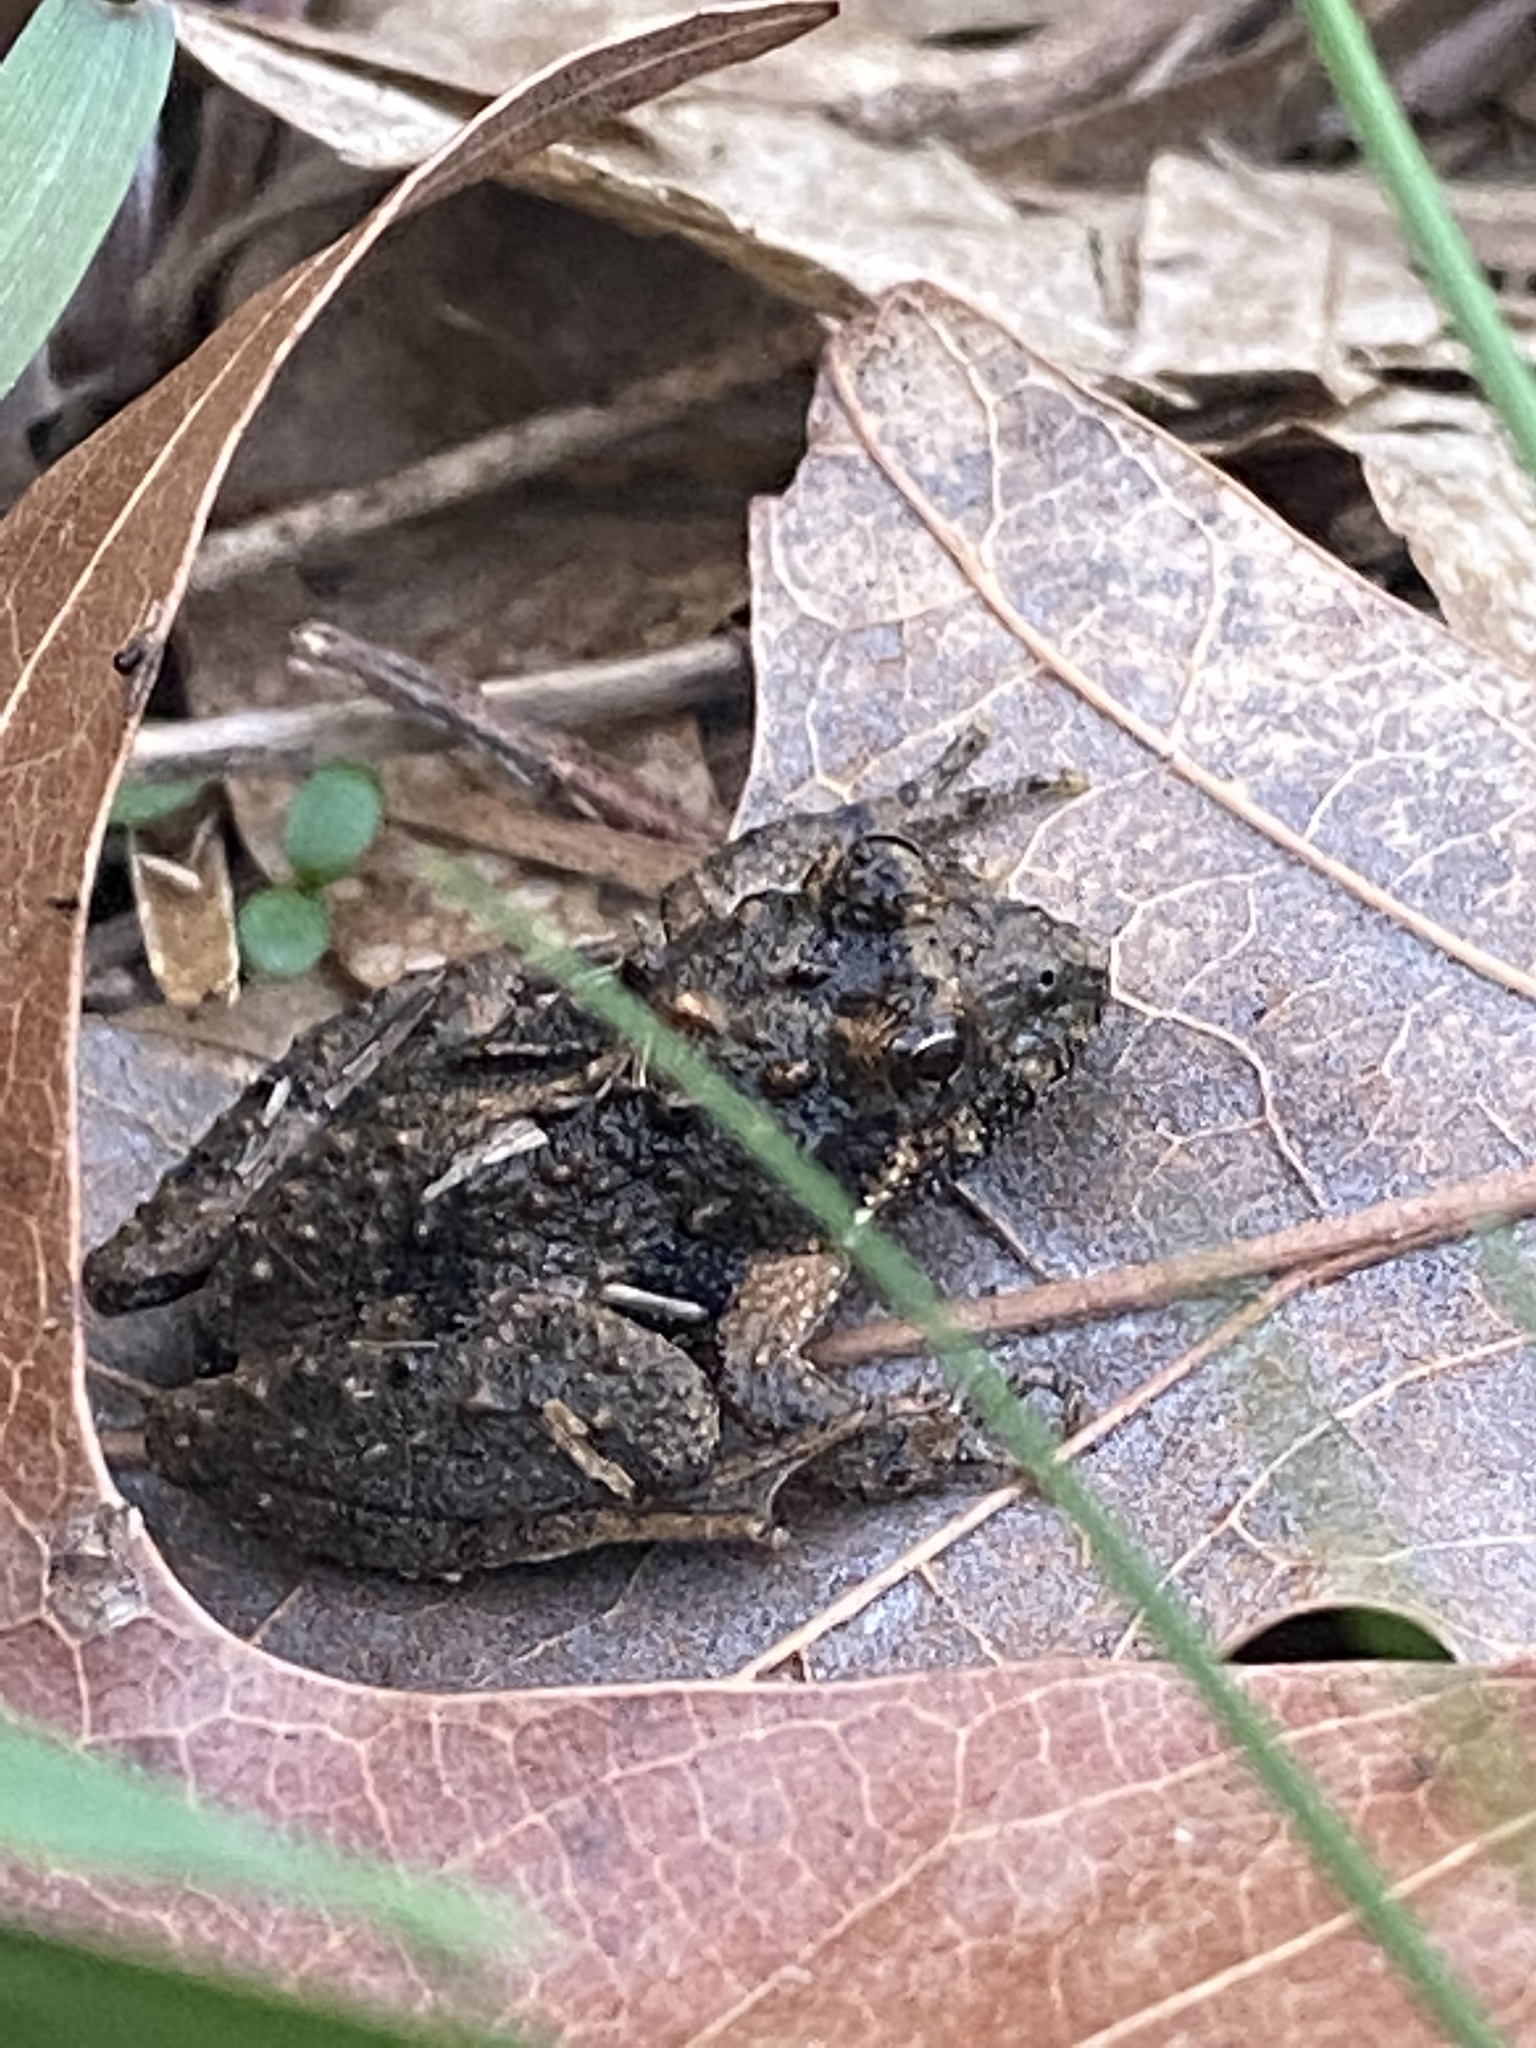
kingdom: Animalia
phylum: Chordata
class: Amphibia
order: Anura
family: Hylidae
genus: Acris
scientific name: Acris crepitans
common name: Northern cricket frog
